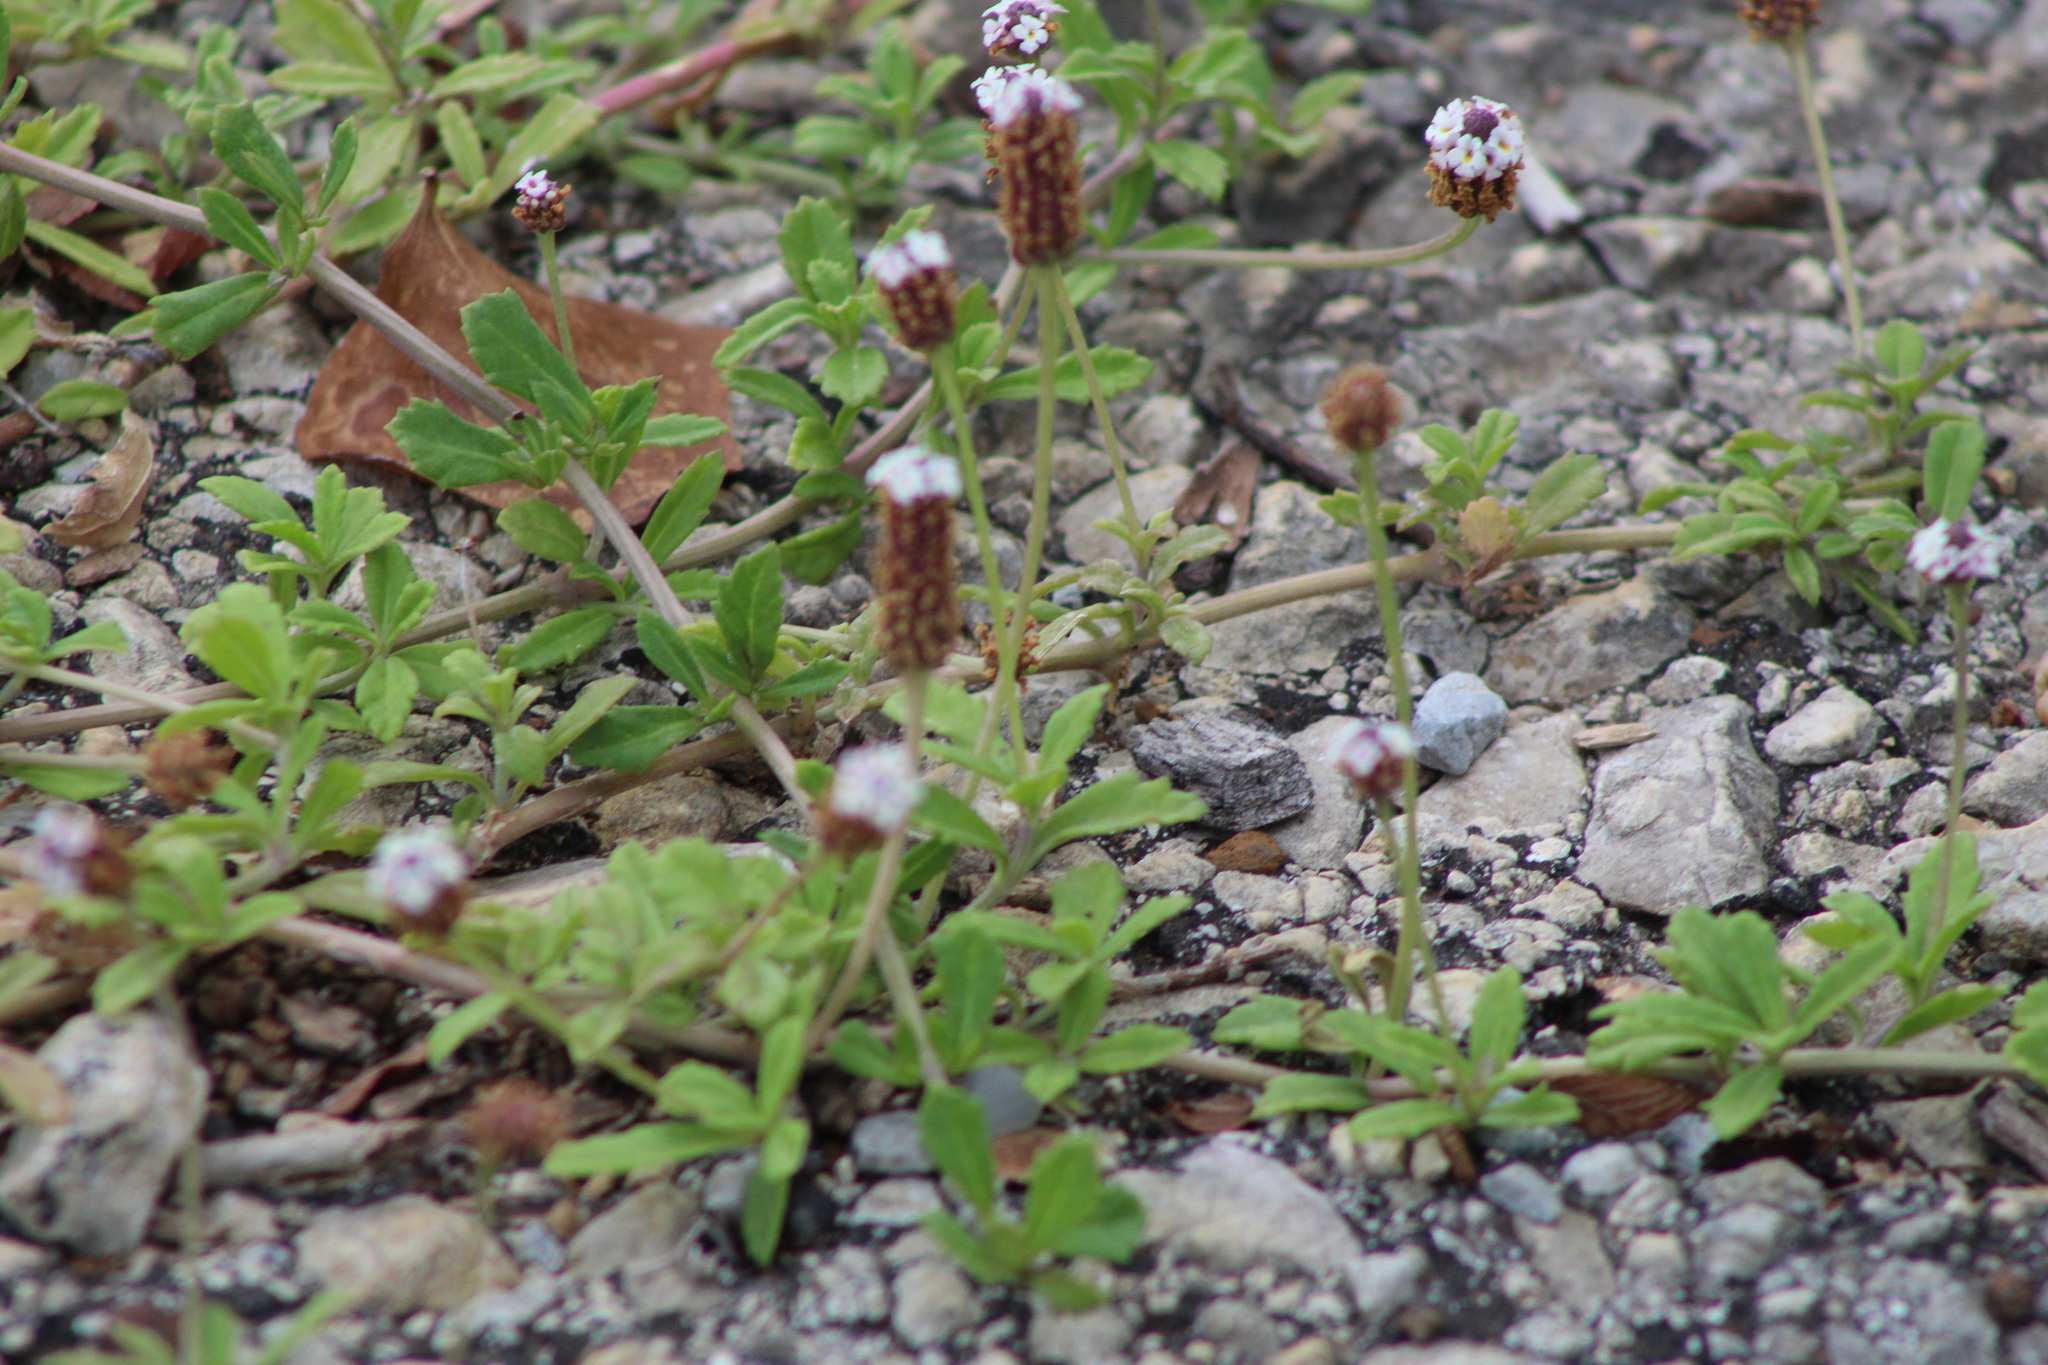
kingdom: Plantae
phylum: Tracheophyta
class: Magnoliopsida
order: Lamiales
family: Verbenaceae
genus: Phyla
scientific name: Phyla nodiflora
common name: Frogfruit
